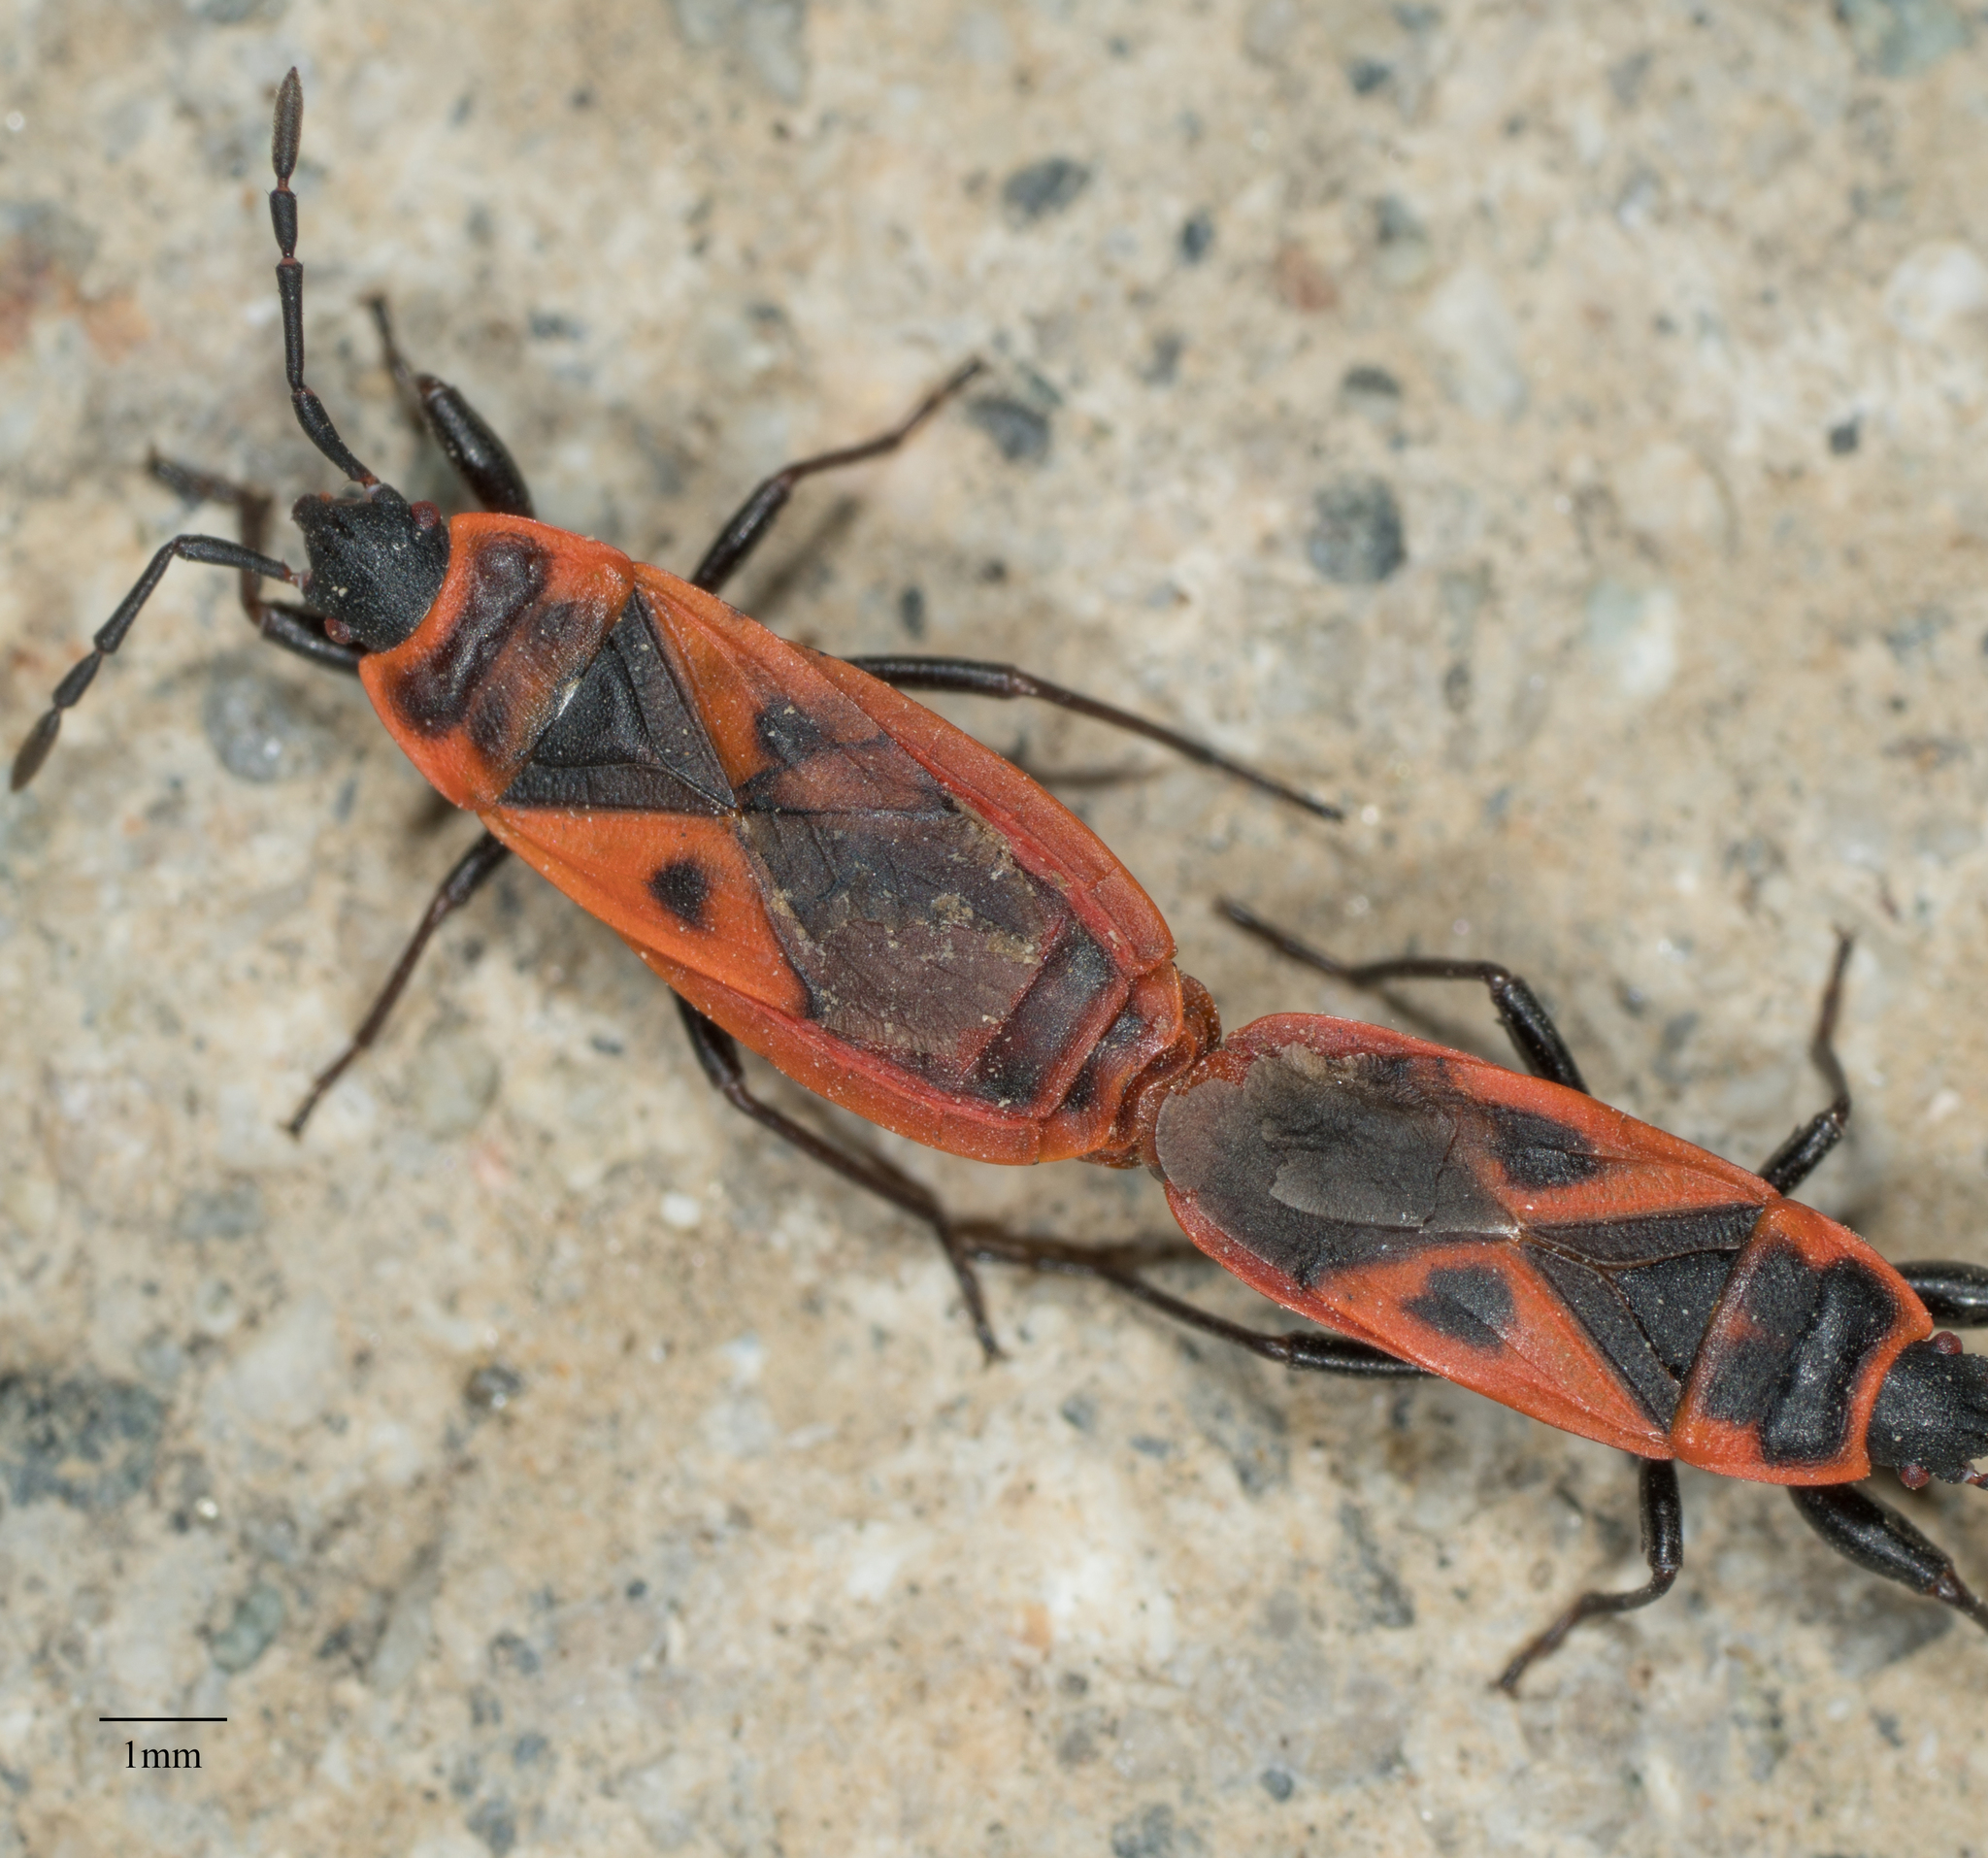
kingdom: Animalia
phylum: Arthropoda
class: Insecta
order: Hemiptera
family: Pyrrhocoridae
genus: Scantius
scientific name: Scantius aegyptius
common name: Red bug
